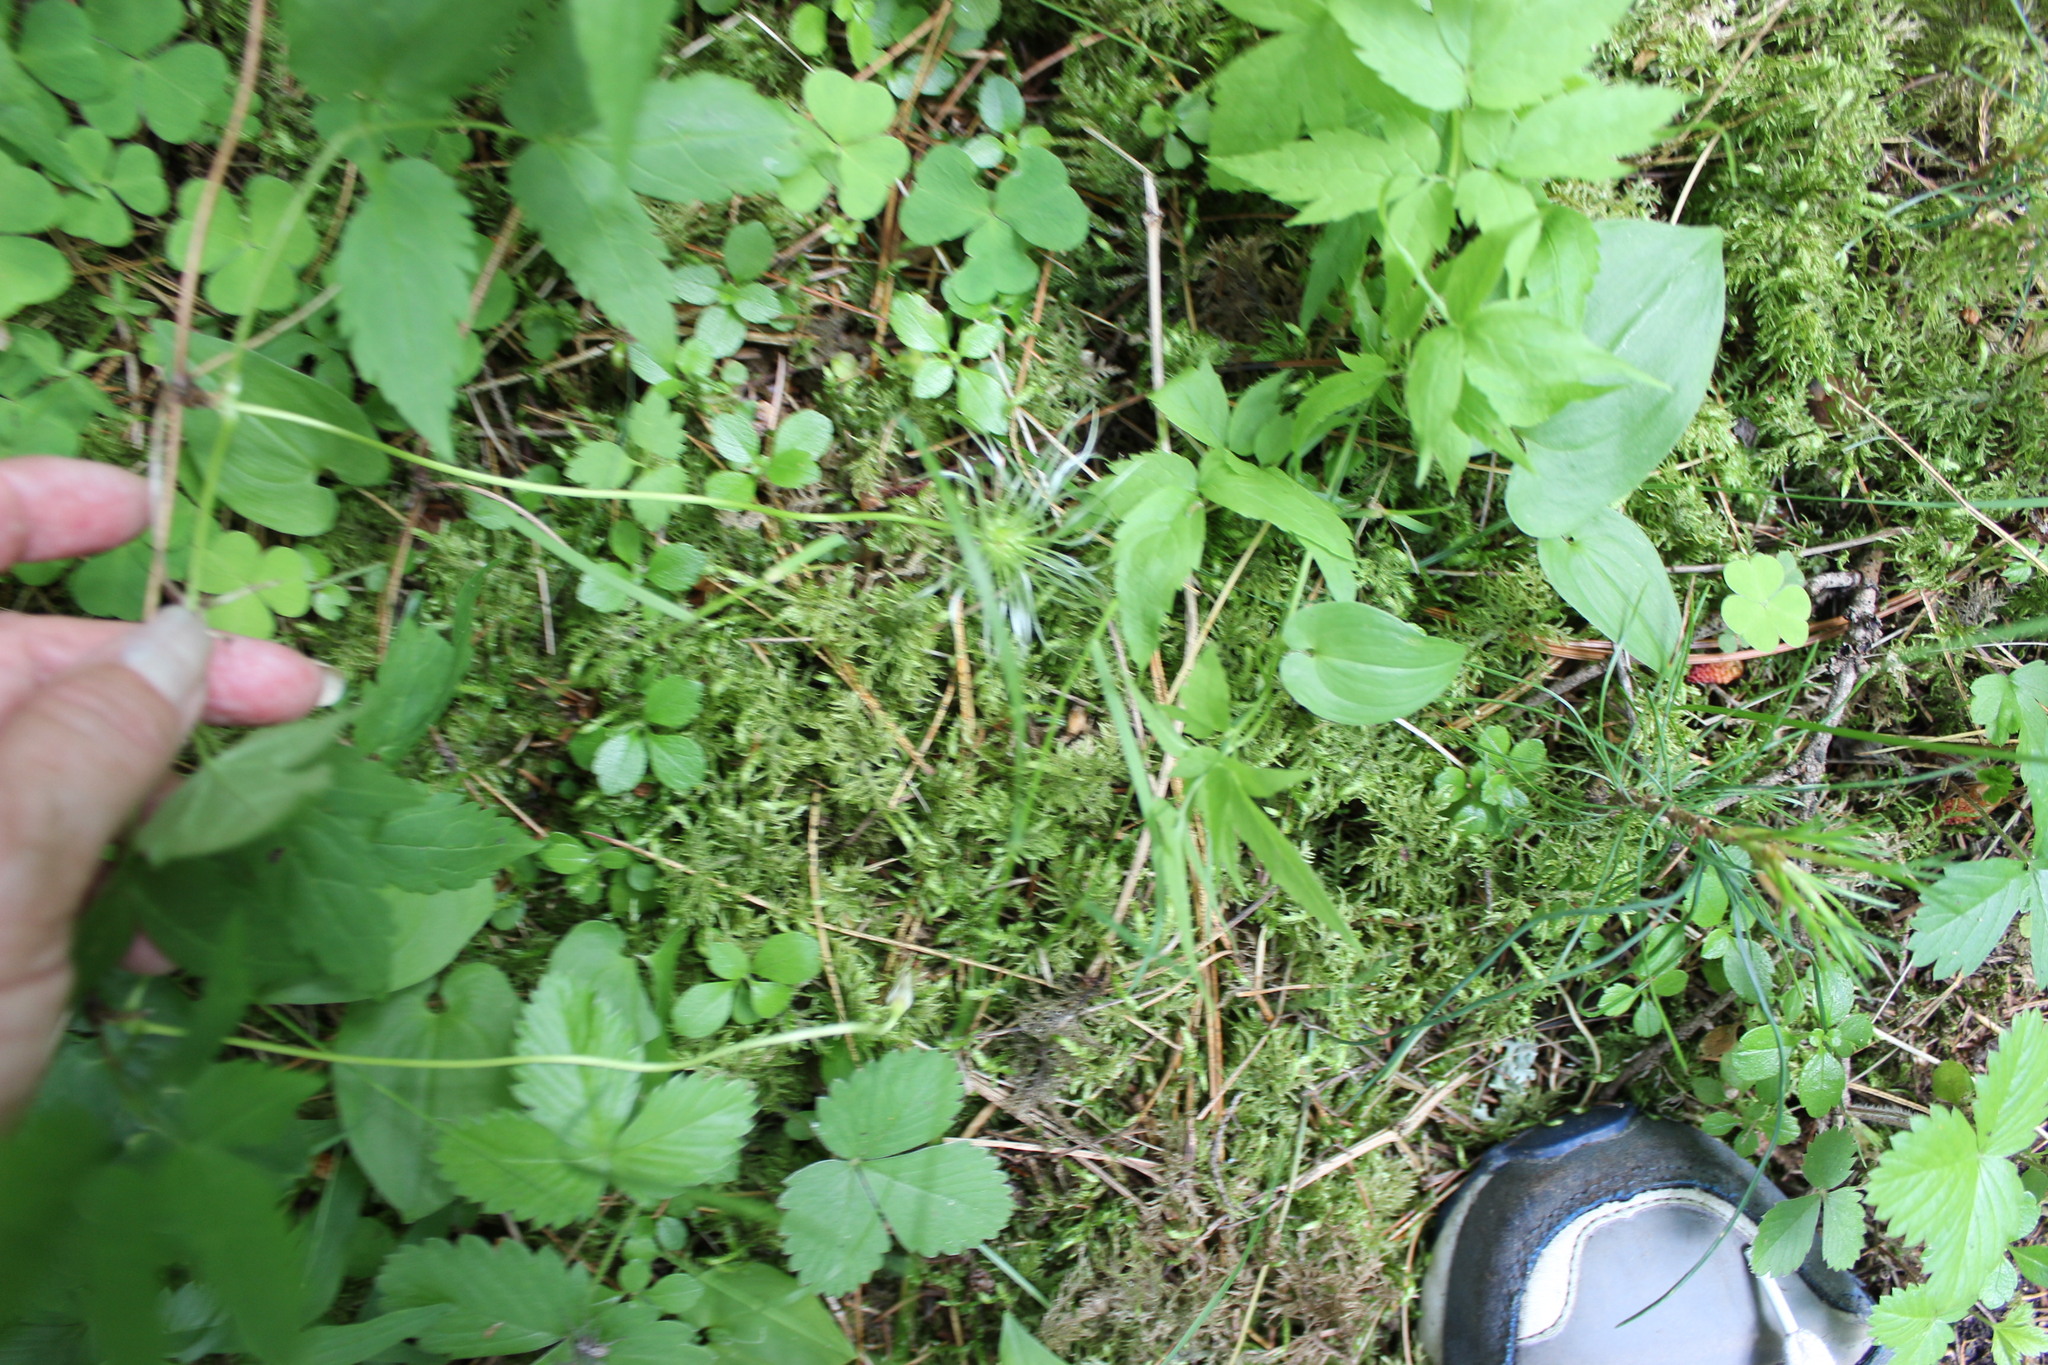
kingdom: Plantae
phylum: Tracheophyta
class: Magnoliopsida
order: Ranunculales
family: Ranunculaceae
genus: Clematis
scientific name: Clematis sibirica
